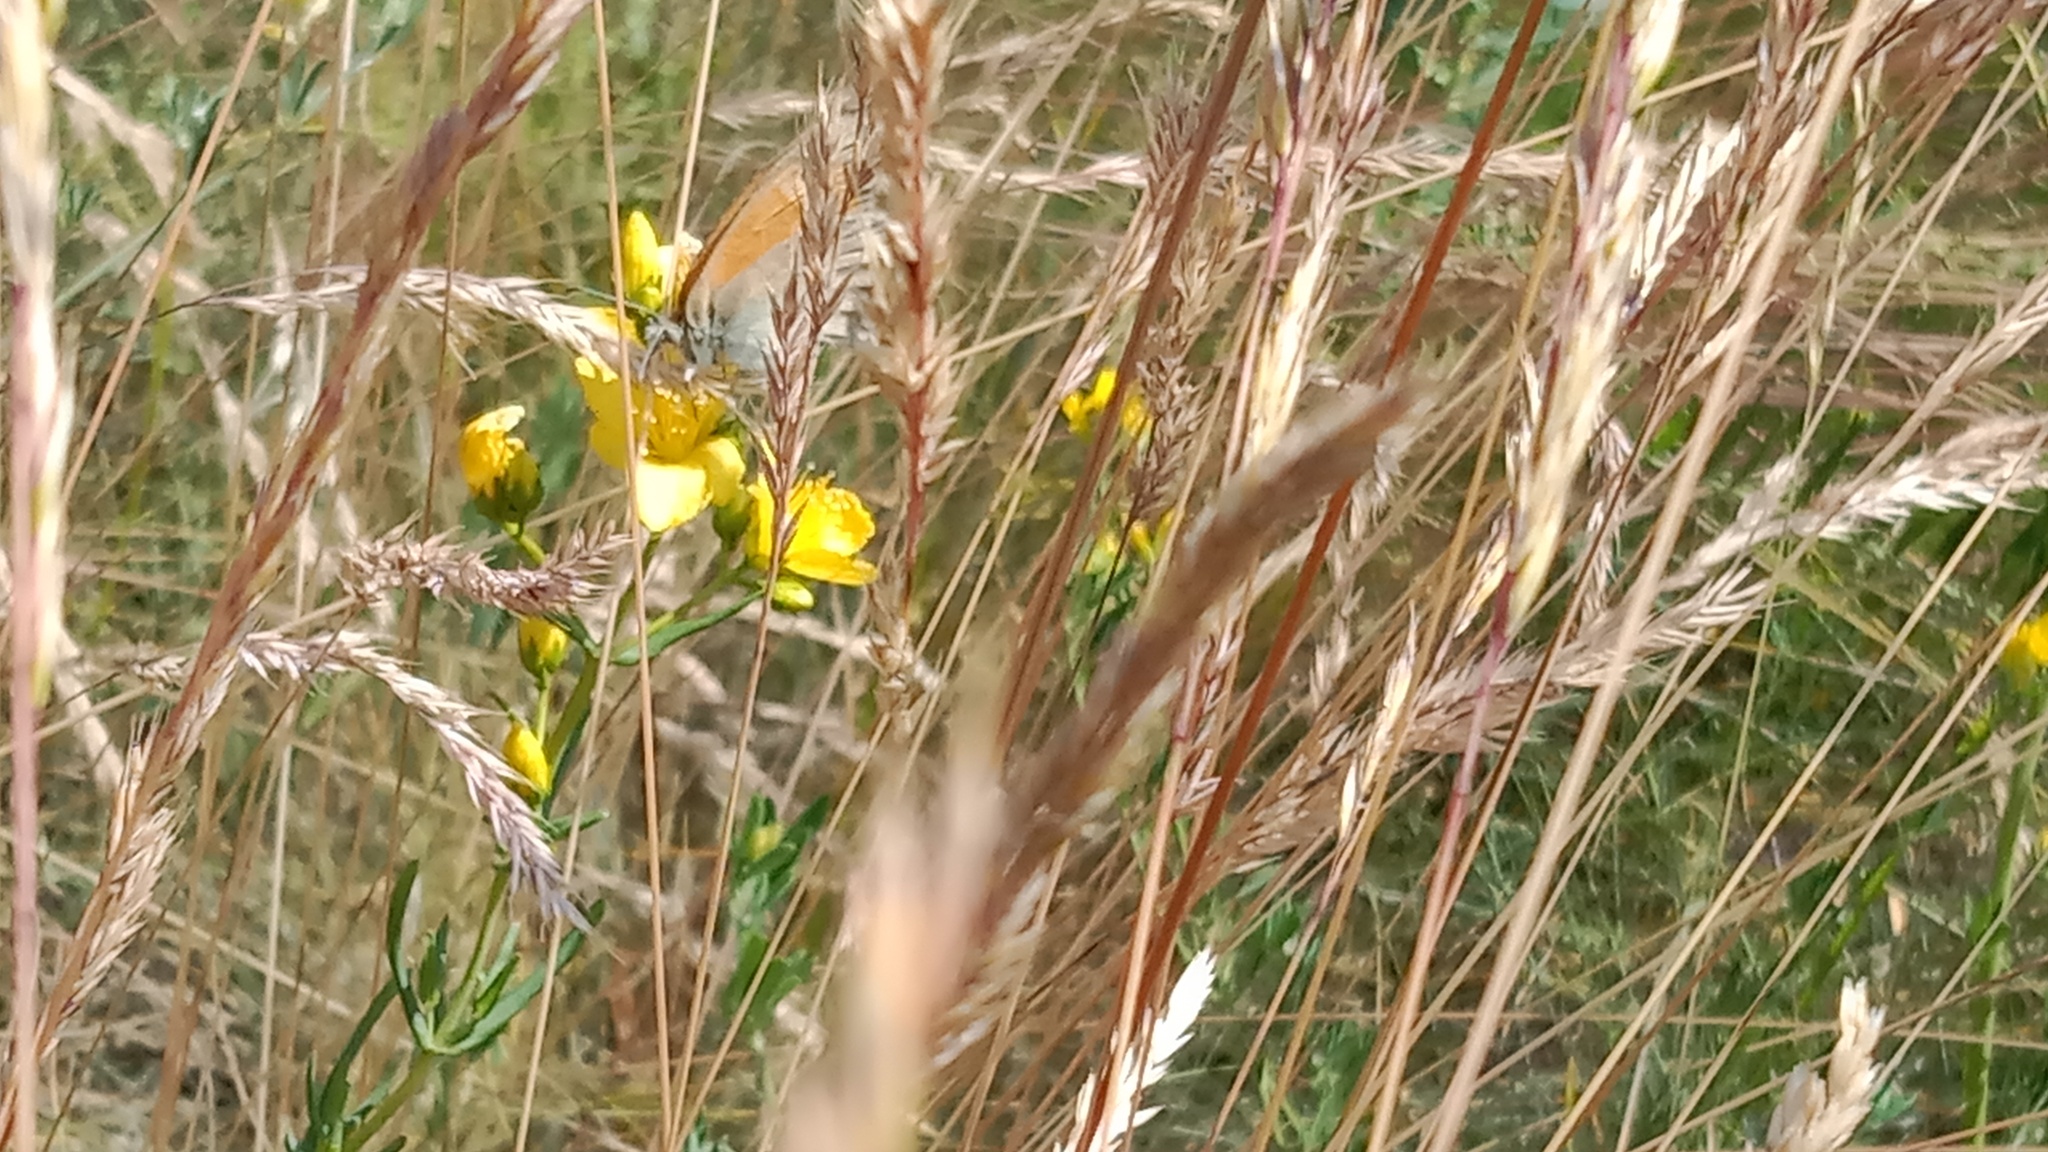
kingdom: Animalia
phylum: Arthropoda
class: Insecta
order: Lepidoptera
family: Nymphalidae
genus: Coenonympha
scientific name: Coenonympha pamphilus
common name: Small heath
